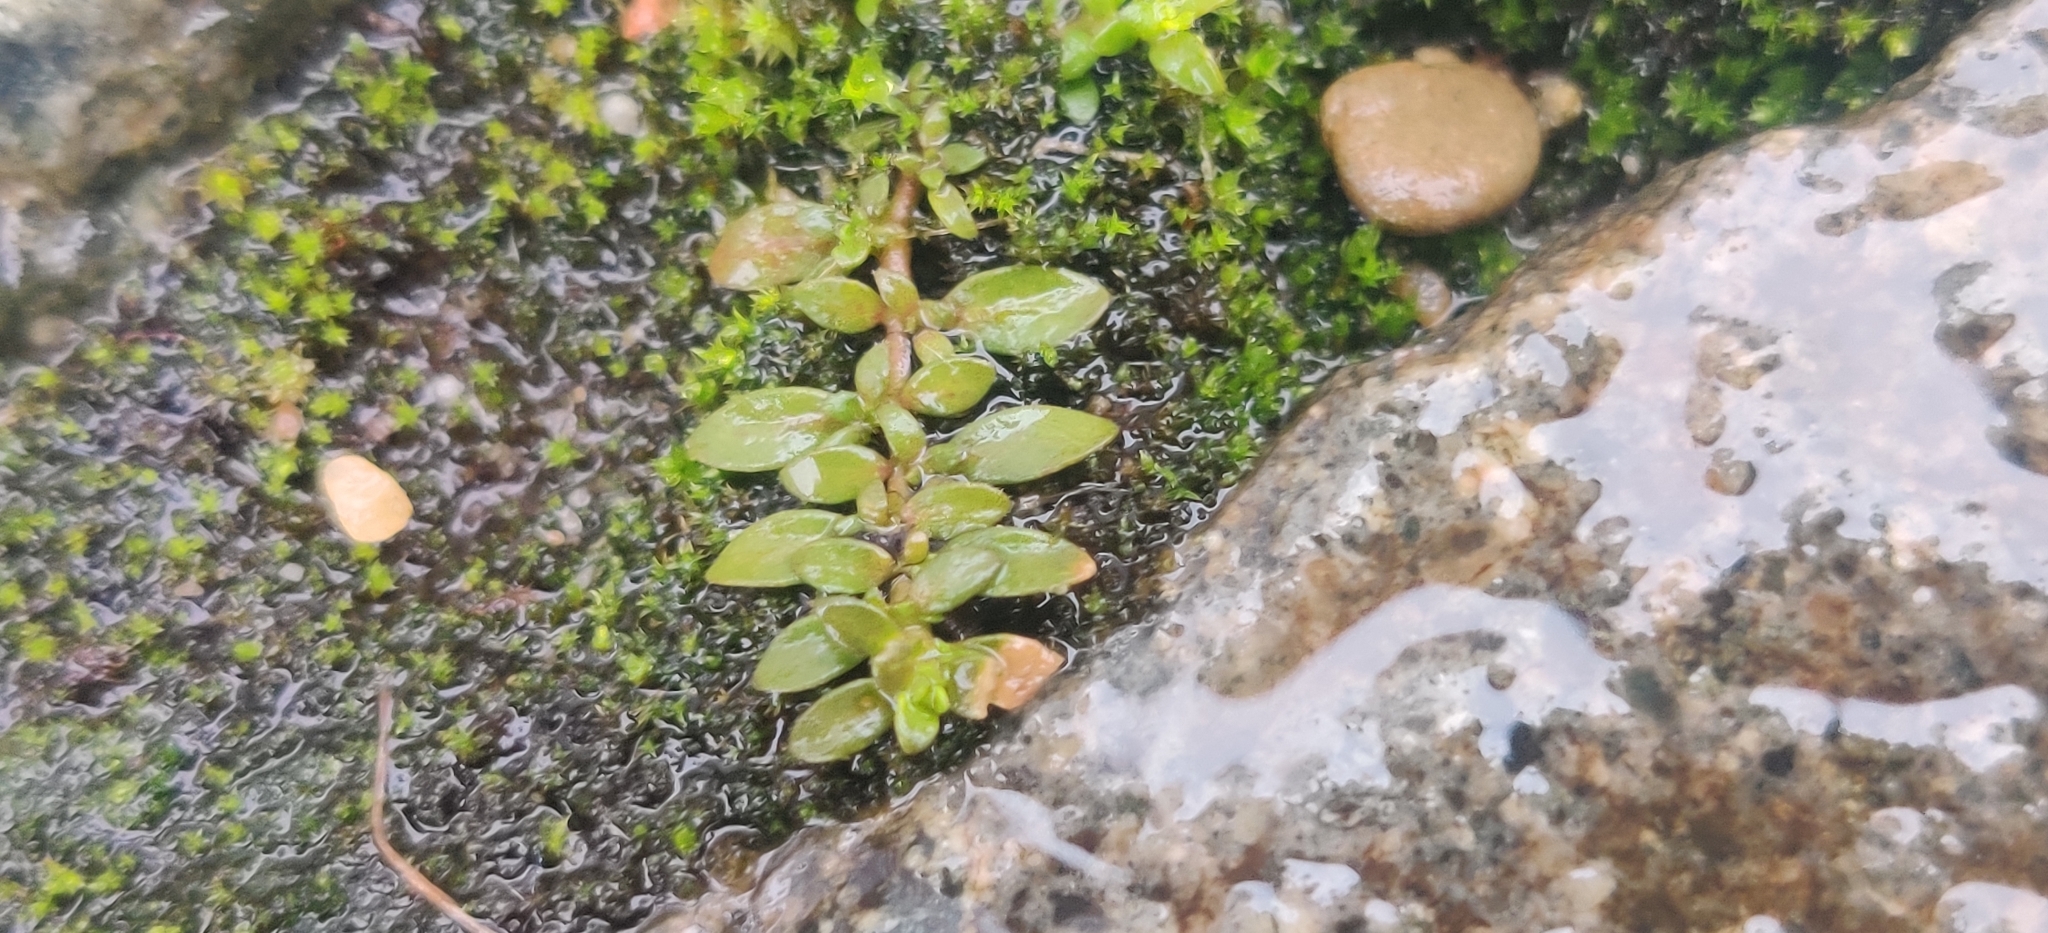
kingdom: Plantae
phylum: Tracheophyta
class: Magnoliopsida
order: Caryophyllales
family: Caryophyllaceae
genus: Herniaria
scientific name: Herniaria glabra
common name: Smooth rupturewort
